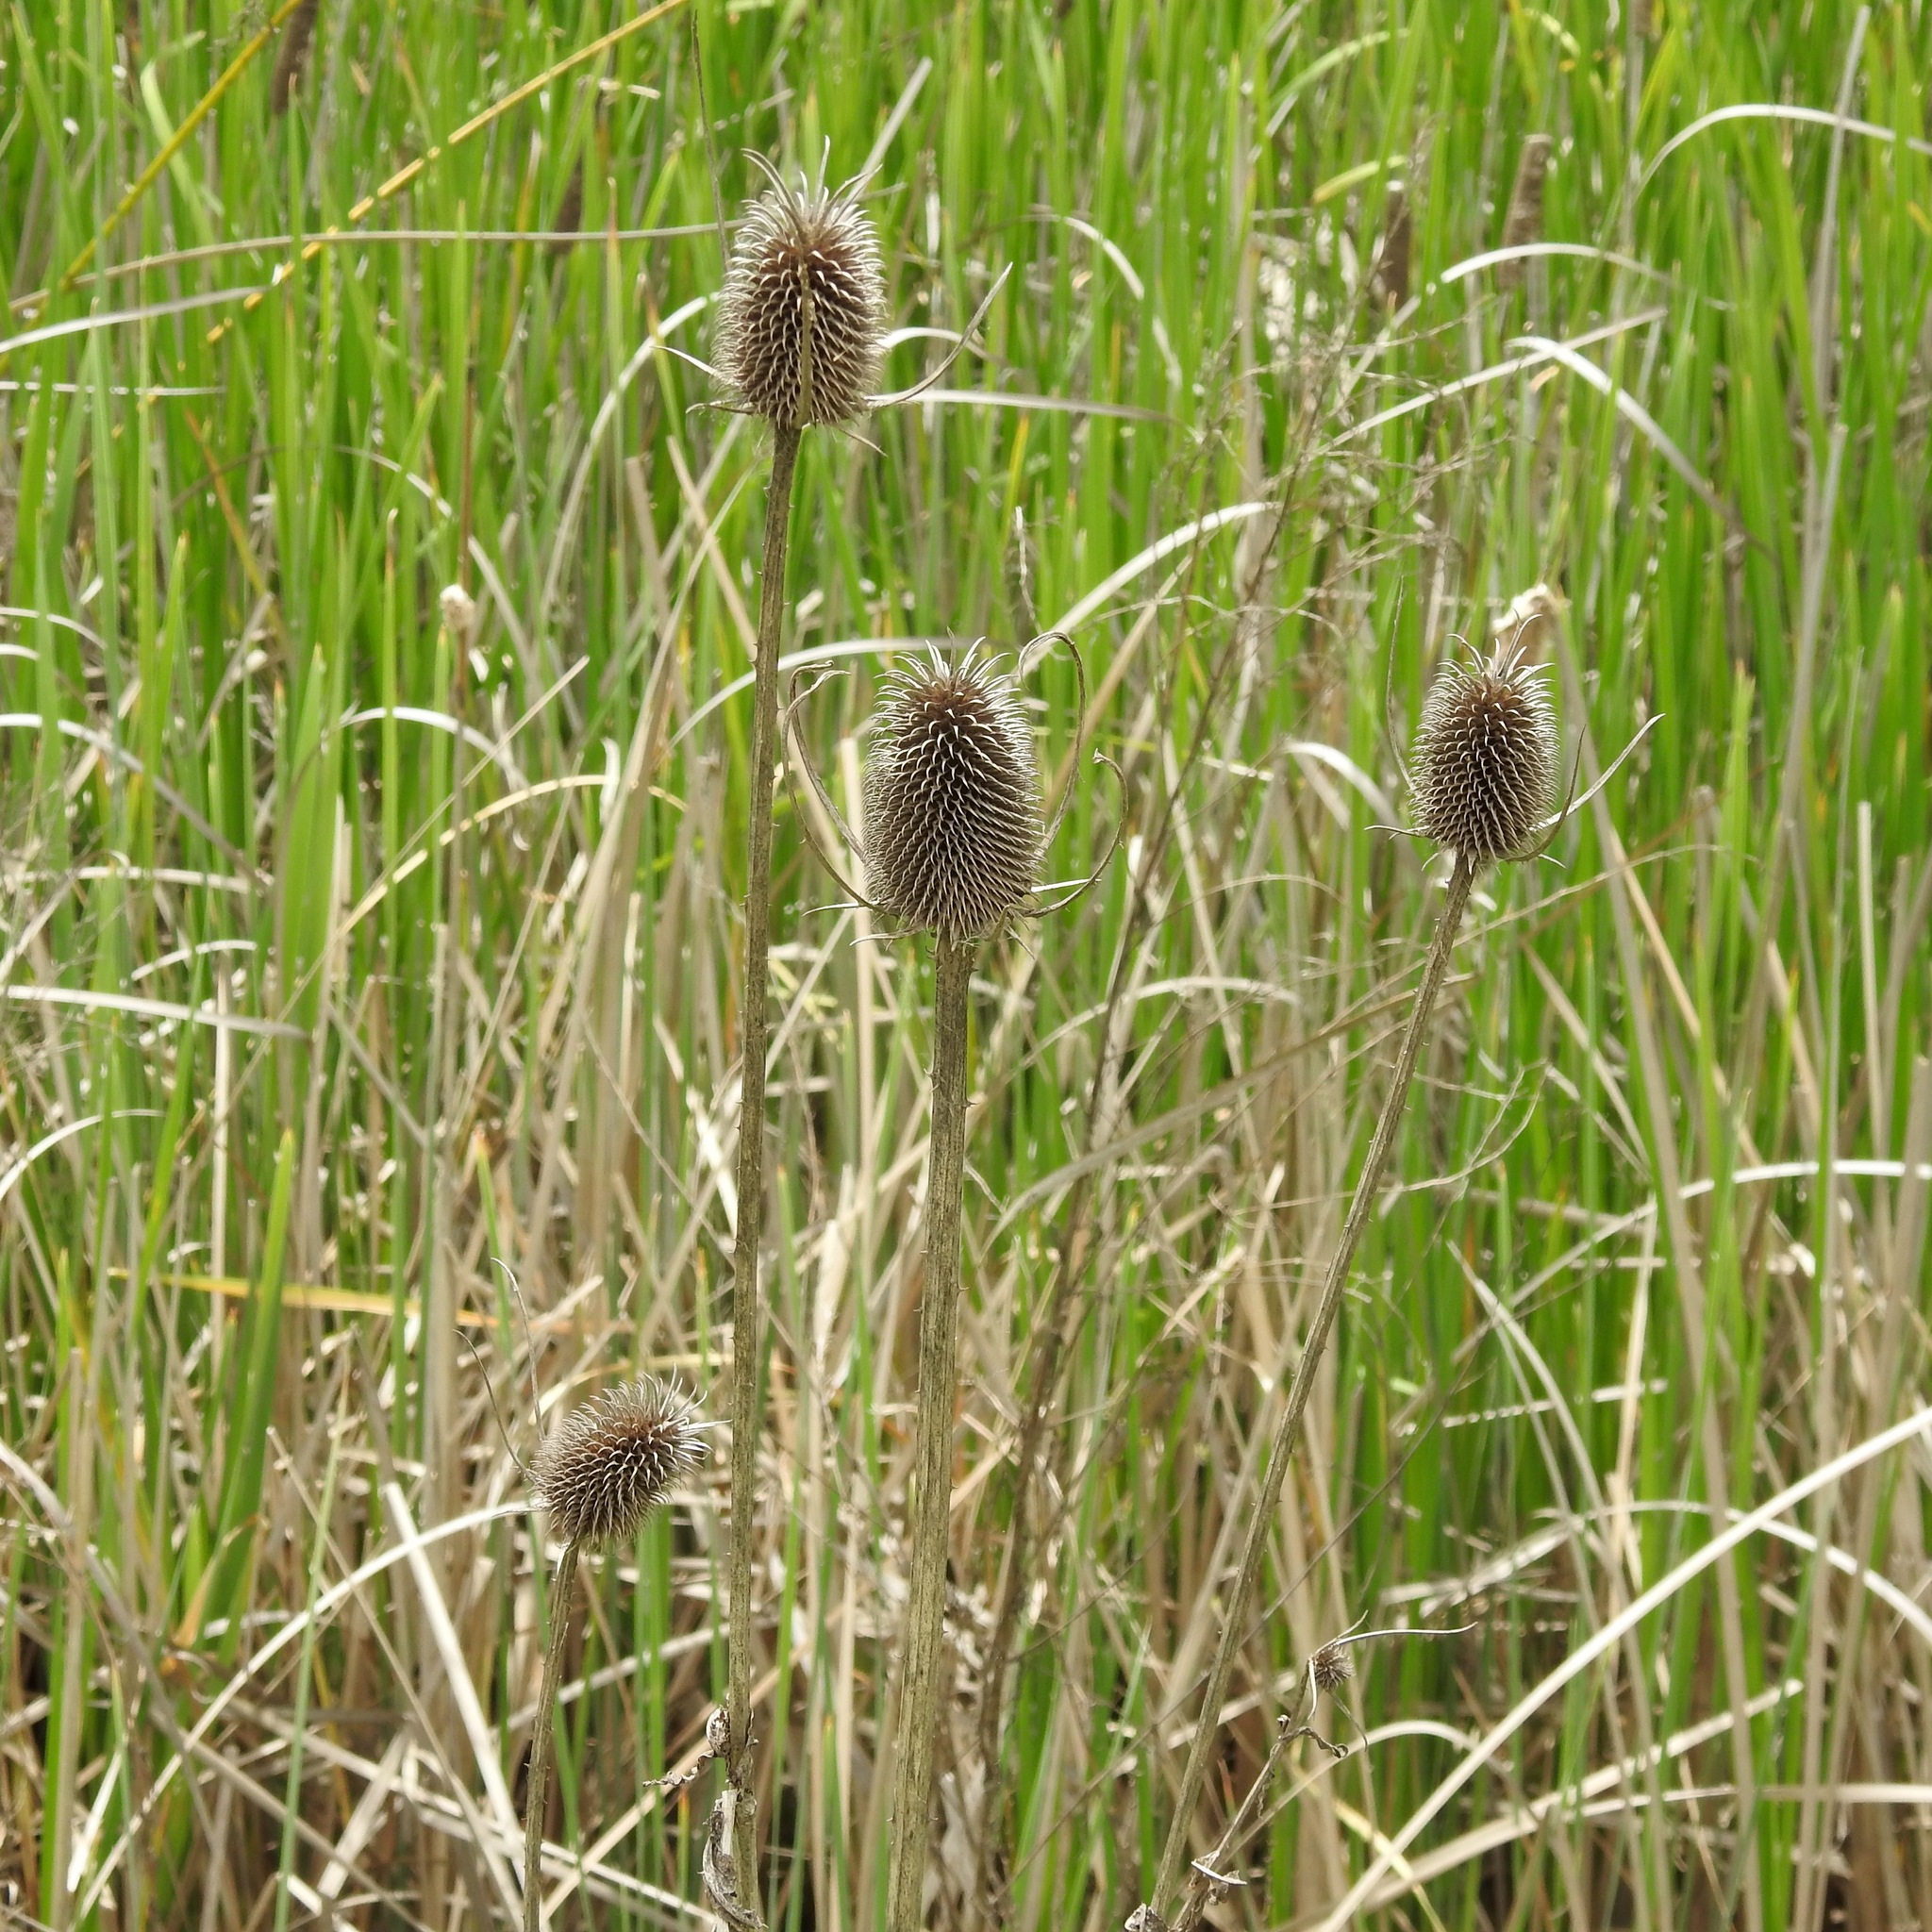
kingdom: Plantae
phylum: Tracheophyta
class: Magnoliopsida
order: Dipsacales
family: Caprifoliaceae
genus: Dipsacus
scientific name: Dipsacus sativus
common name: Fuller's teasel
